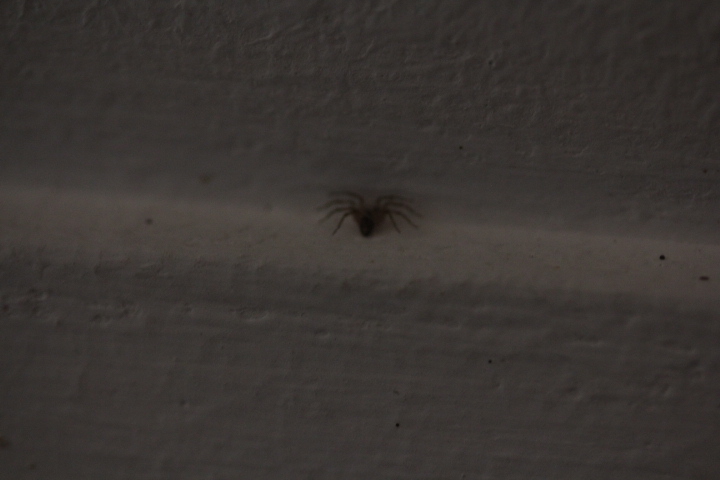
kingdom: Animalia
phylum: Arthropoda
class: Arachnida
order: Araneae
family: Oecobiidae
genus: Oecobius
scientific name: Oecobius navus
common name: Flatmesh weaver
